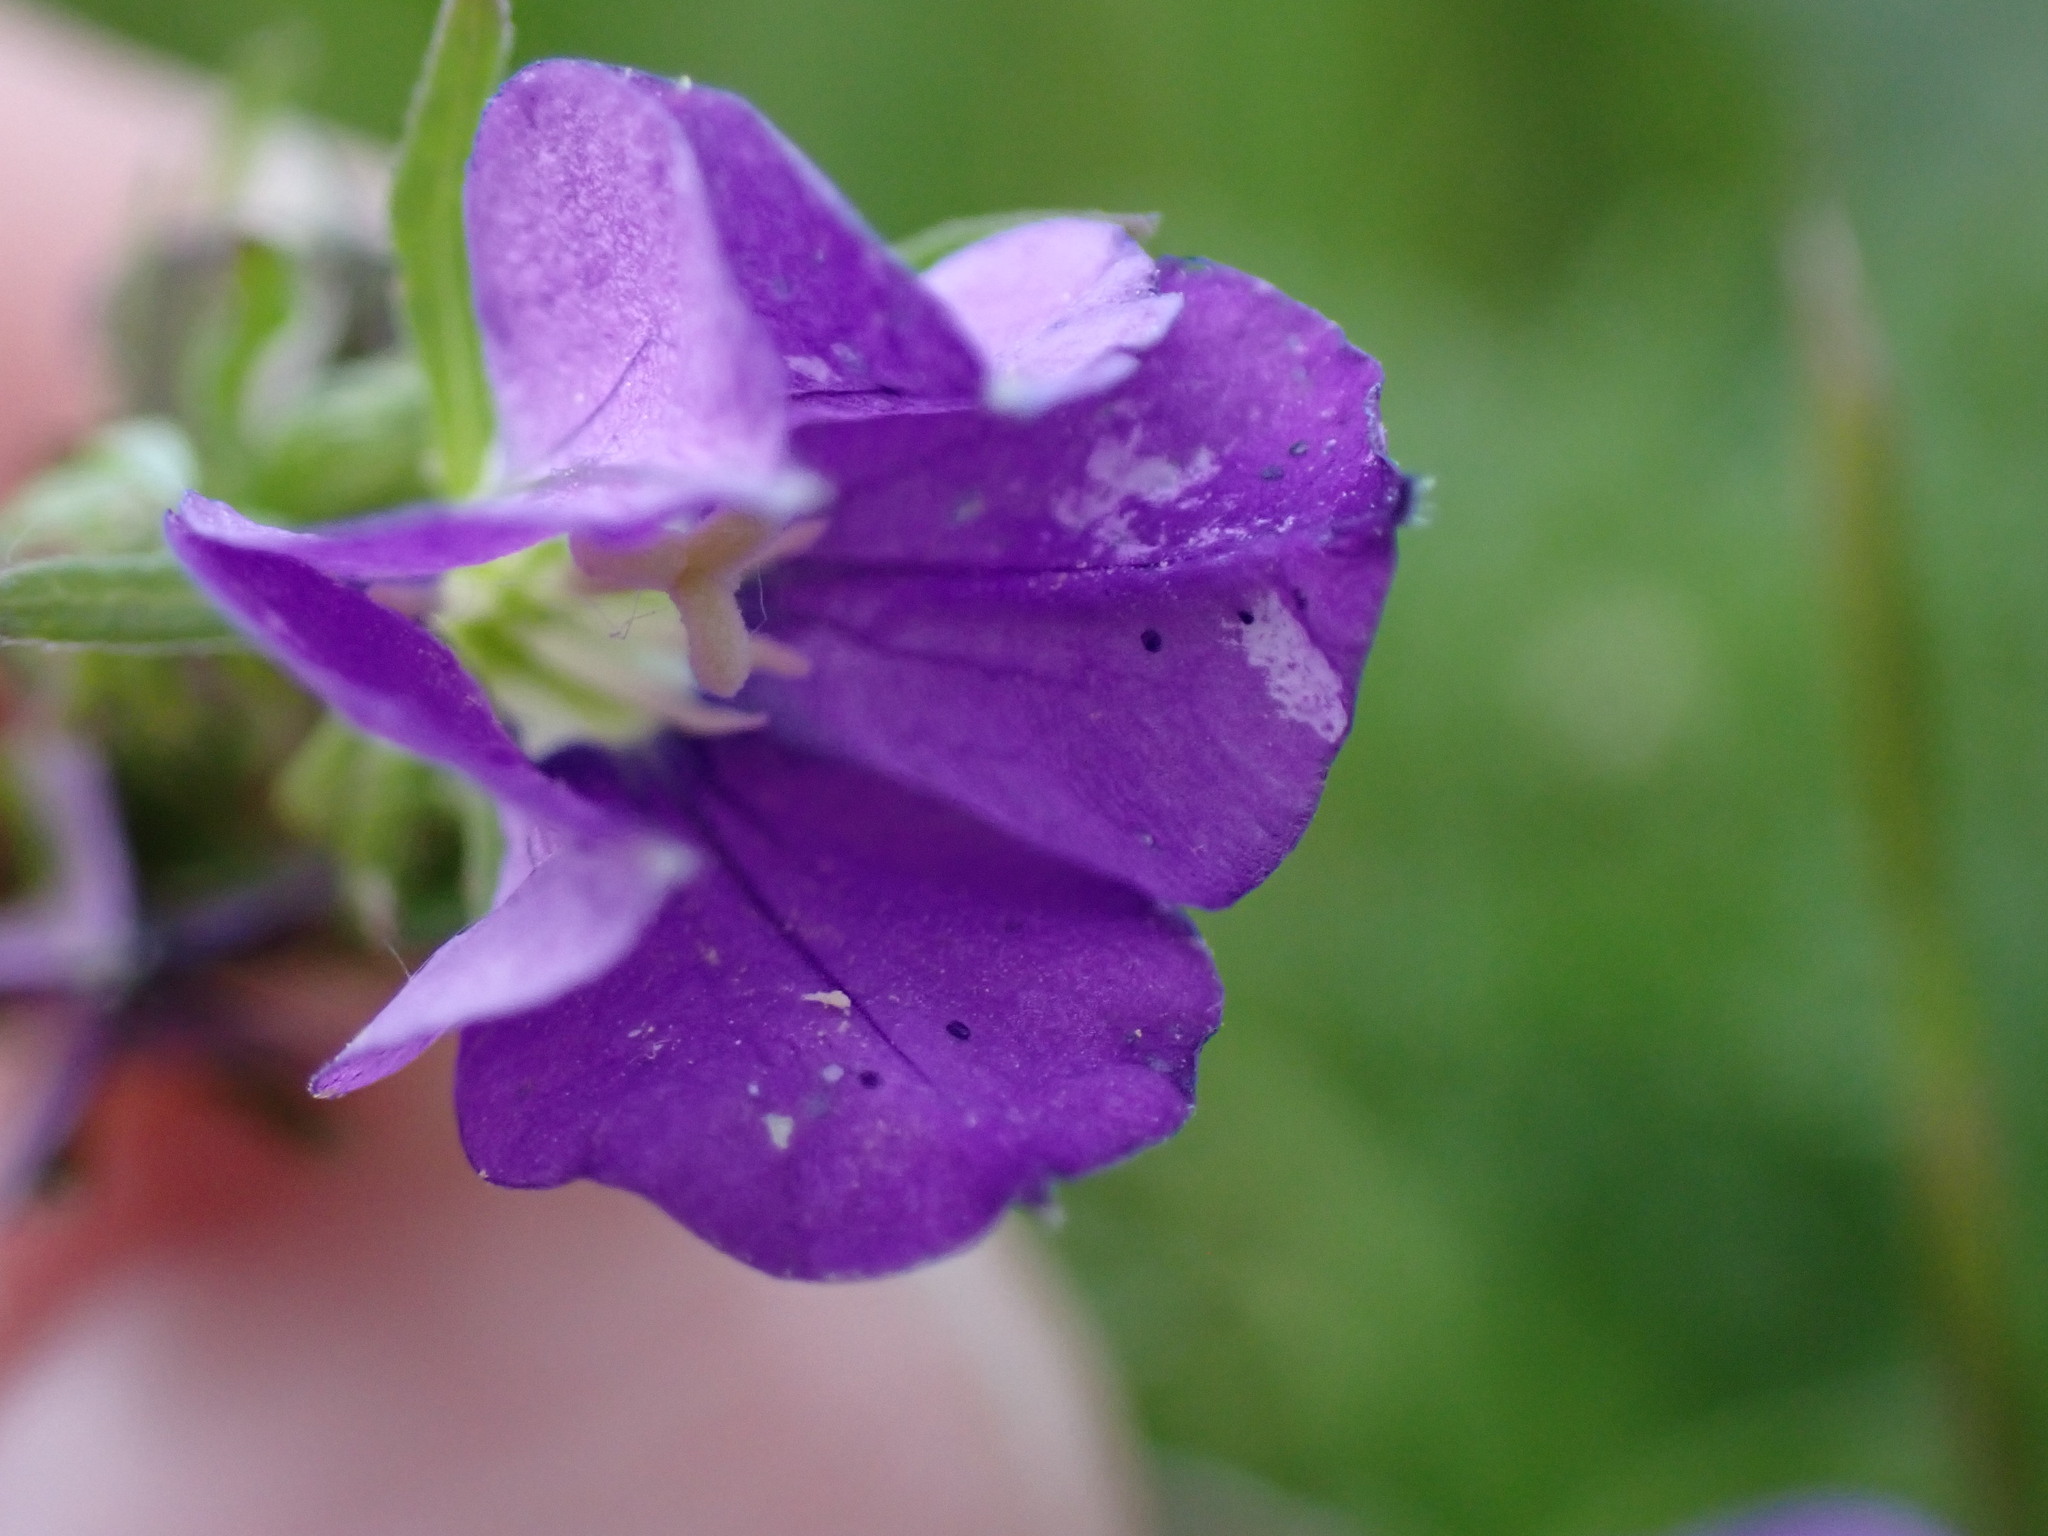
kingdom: Plantae
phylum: Tracheophyta
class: Magnoliopsida
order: Asterales
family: Campanulaceae
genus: Legousia
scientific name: Legousia speculum-veneris
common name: Large venus's-looking-glass
